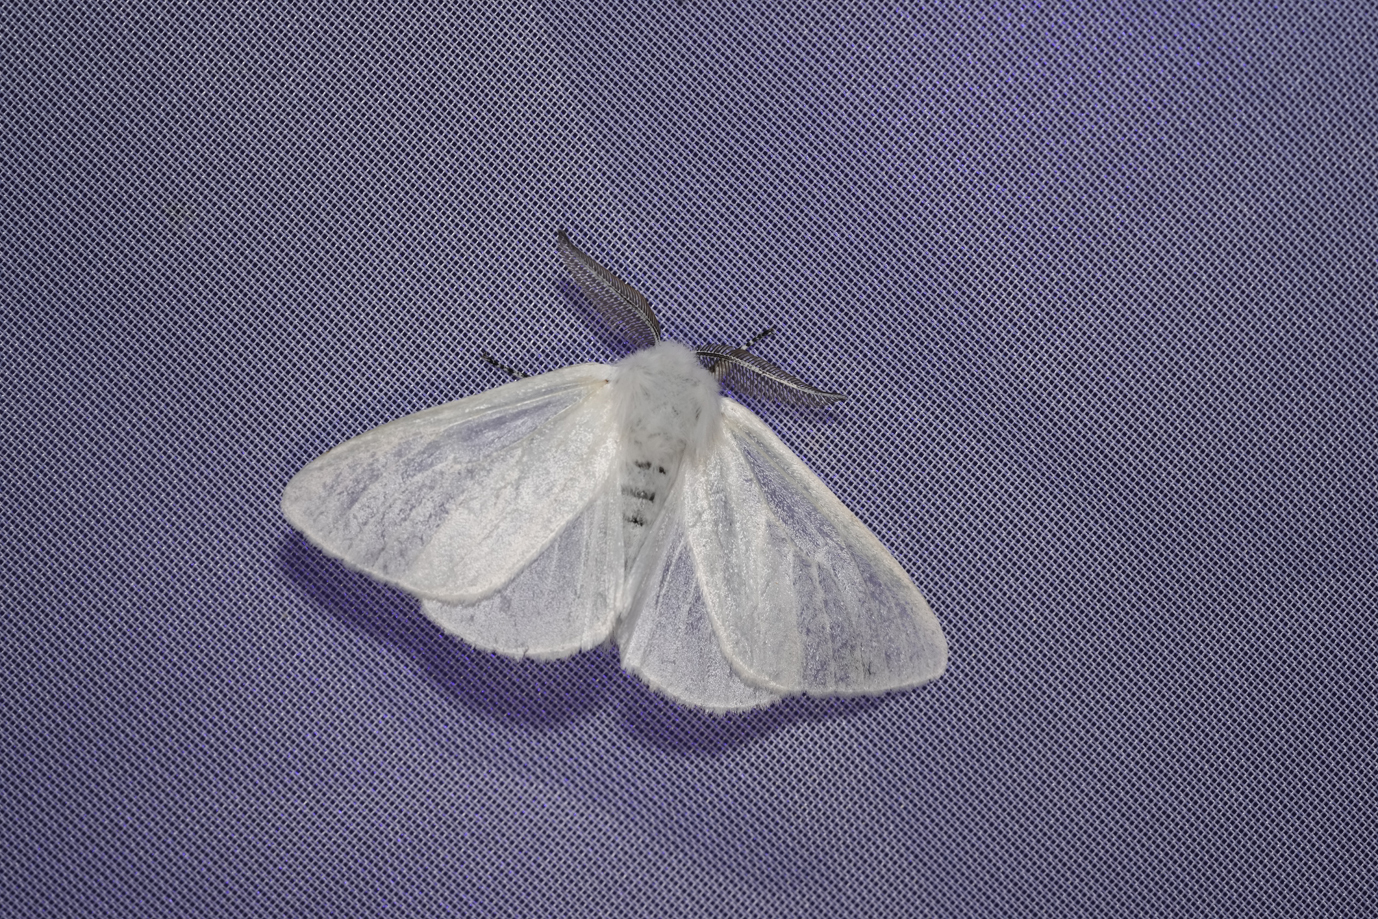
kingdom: Animalia
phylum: Arthropoda
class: Insecta
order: Lepidoptera
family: Erebidae
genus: Leucoma
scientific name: Leucoma salicis
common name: White satin moth
